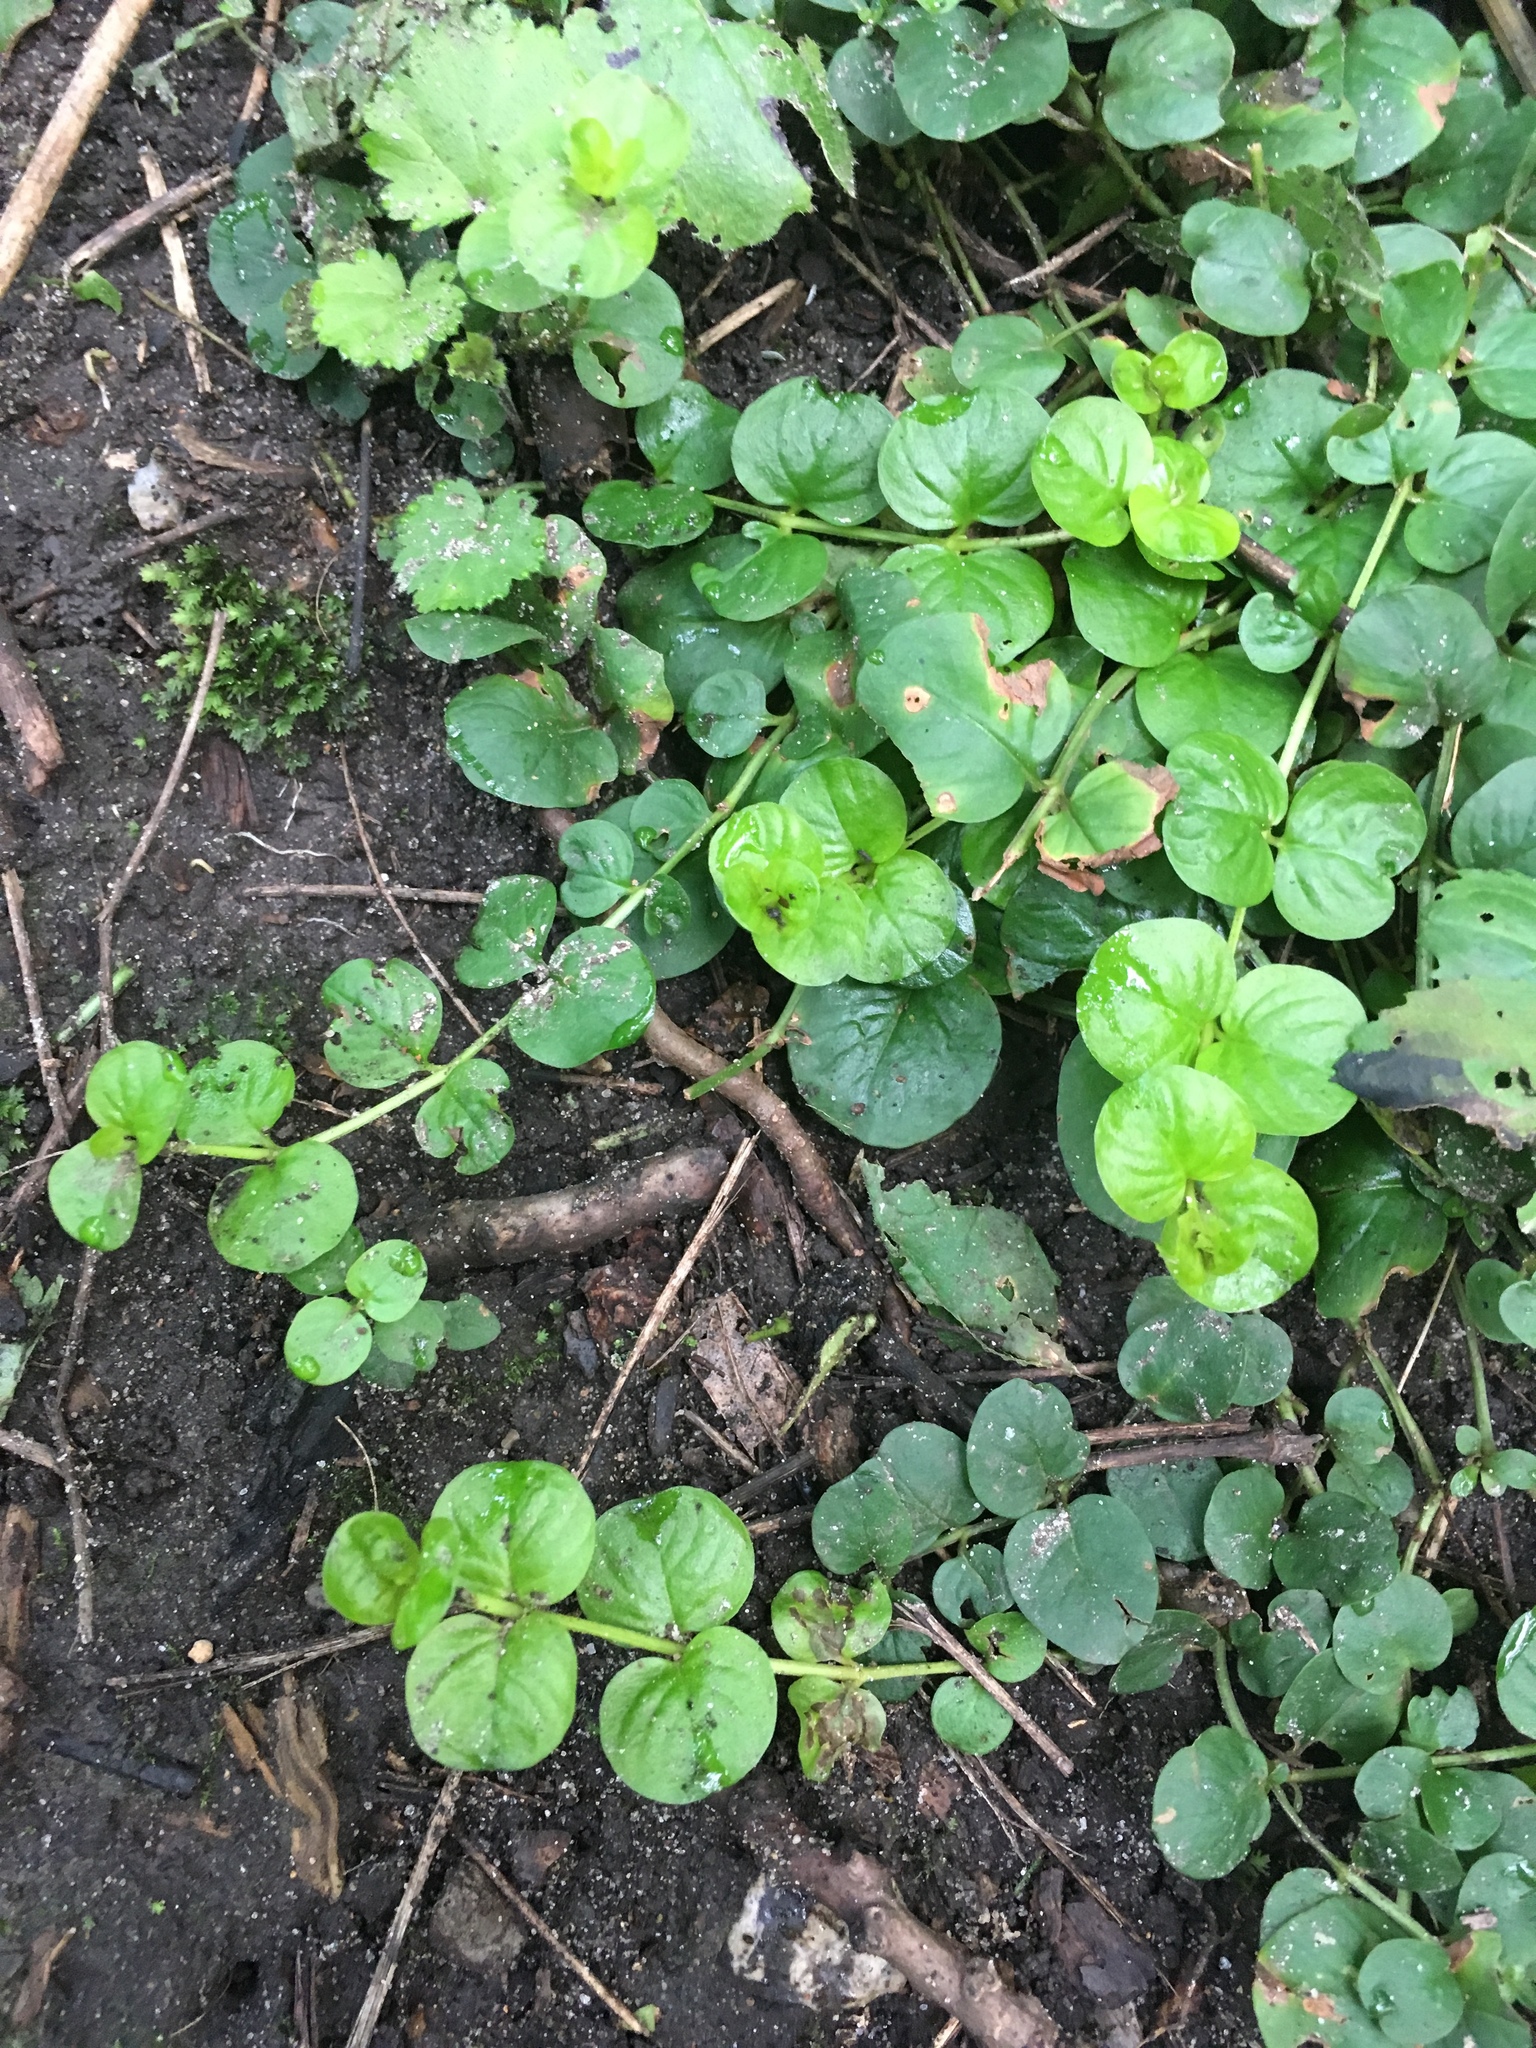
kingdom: Plantae
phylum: Tracheophyta
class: Magnoliopsida
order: Ericales
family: Primulaceae
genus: Lysimachia
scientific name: Lysimachia nummularia
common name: Moneywort
